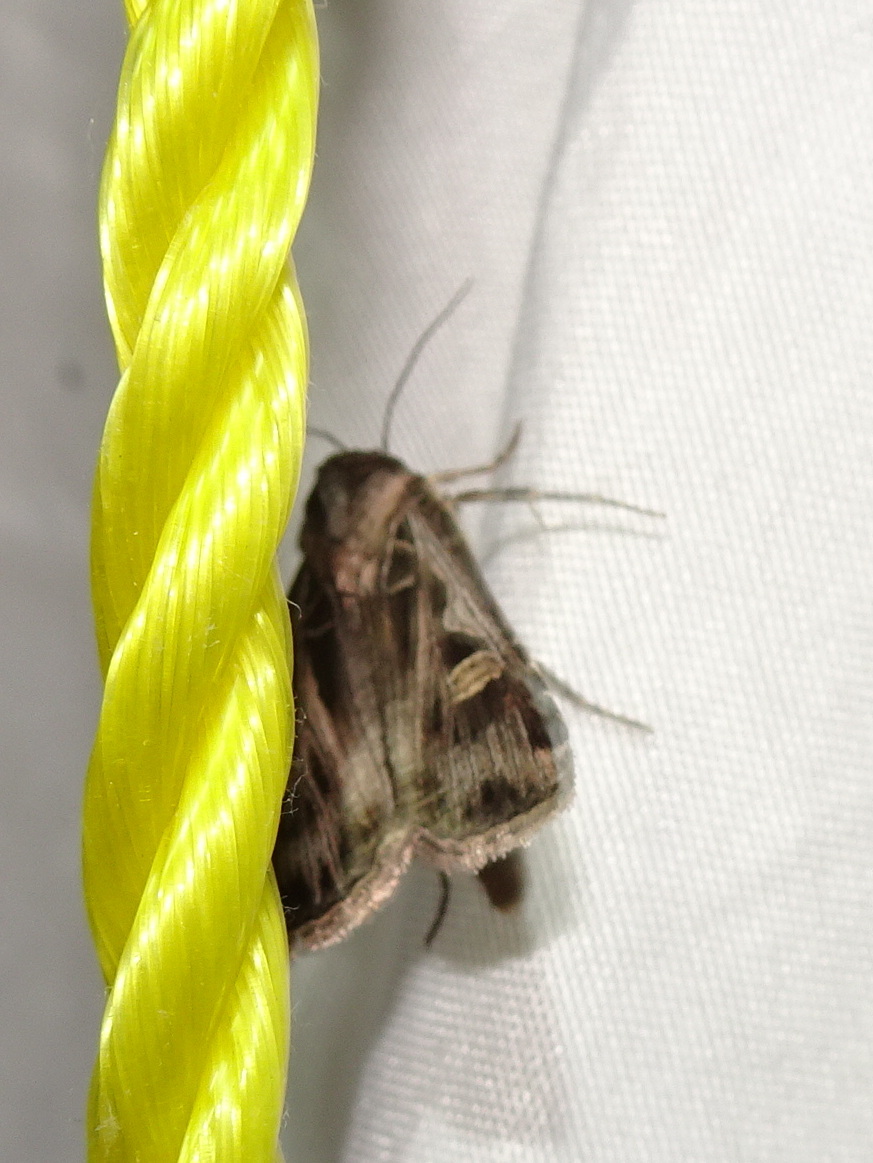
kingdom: Animalia
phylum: Arthropoda
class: Insecta
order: Lepidoptera
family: Noctuidae
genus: Feltia
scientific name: Feltia jaculifera
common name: Dingy cutworm moth
